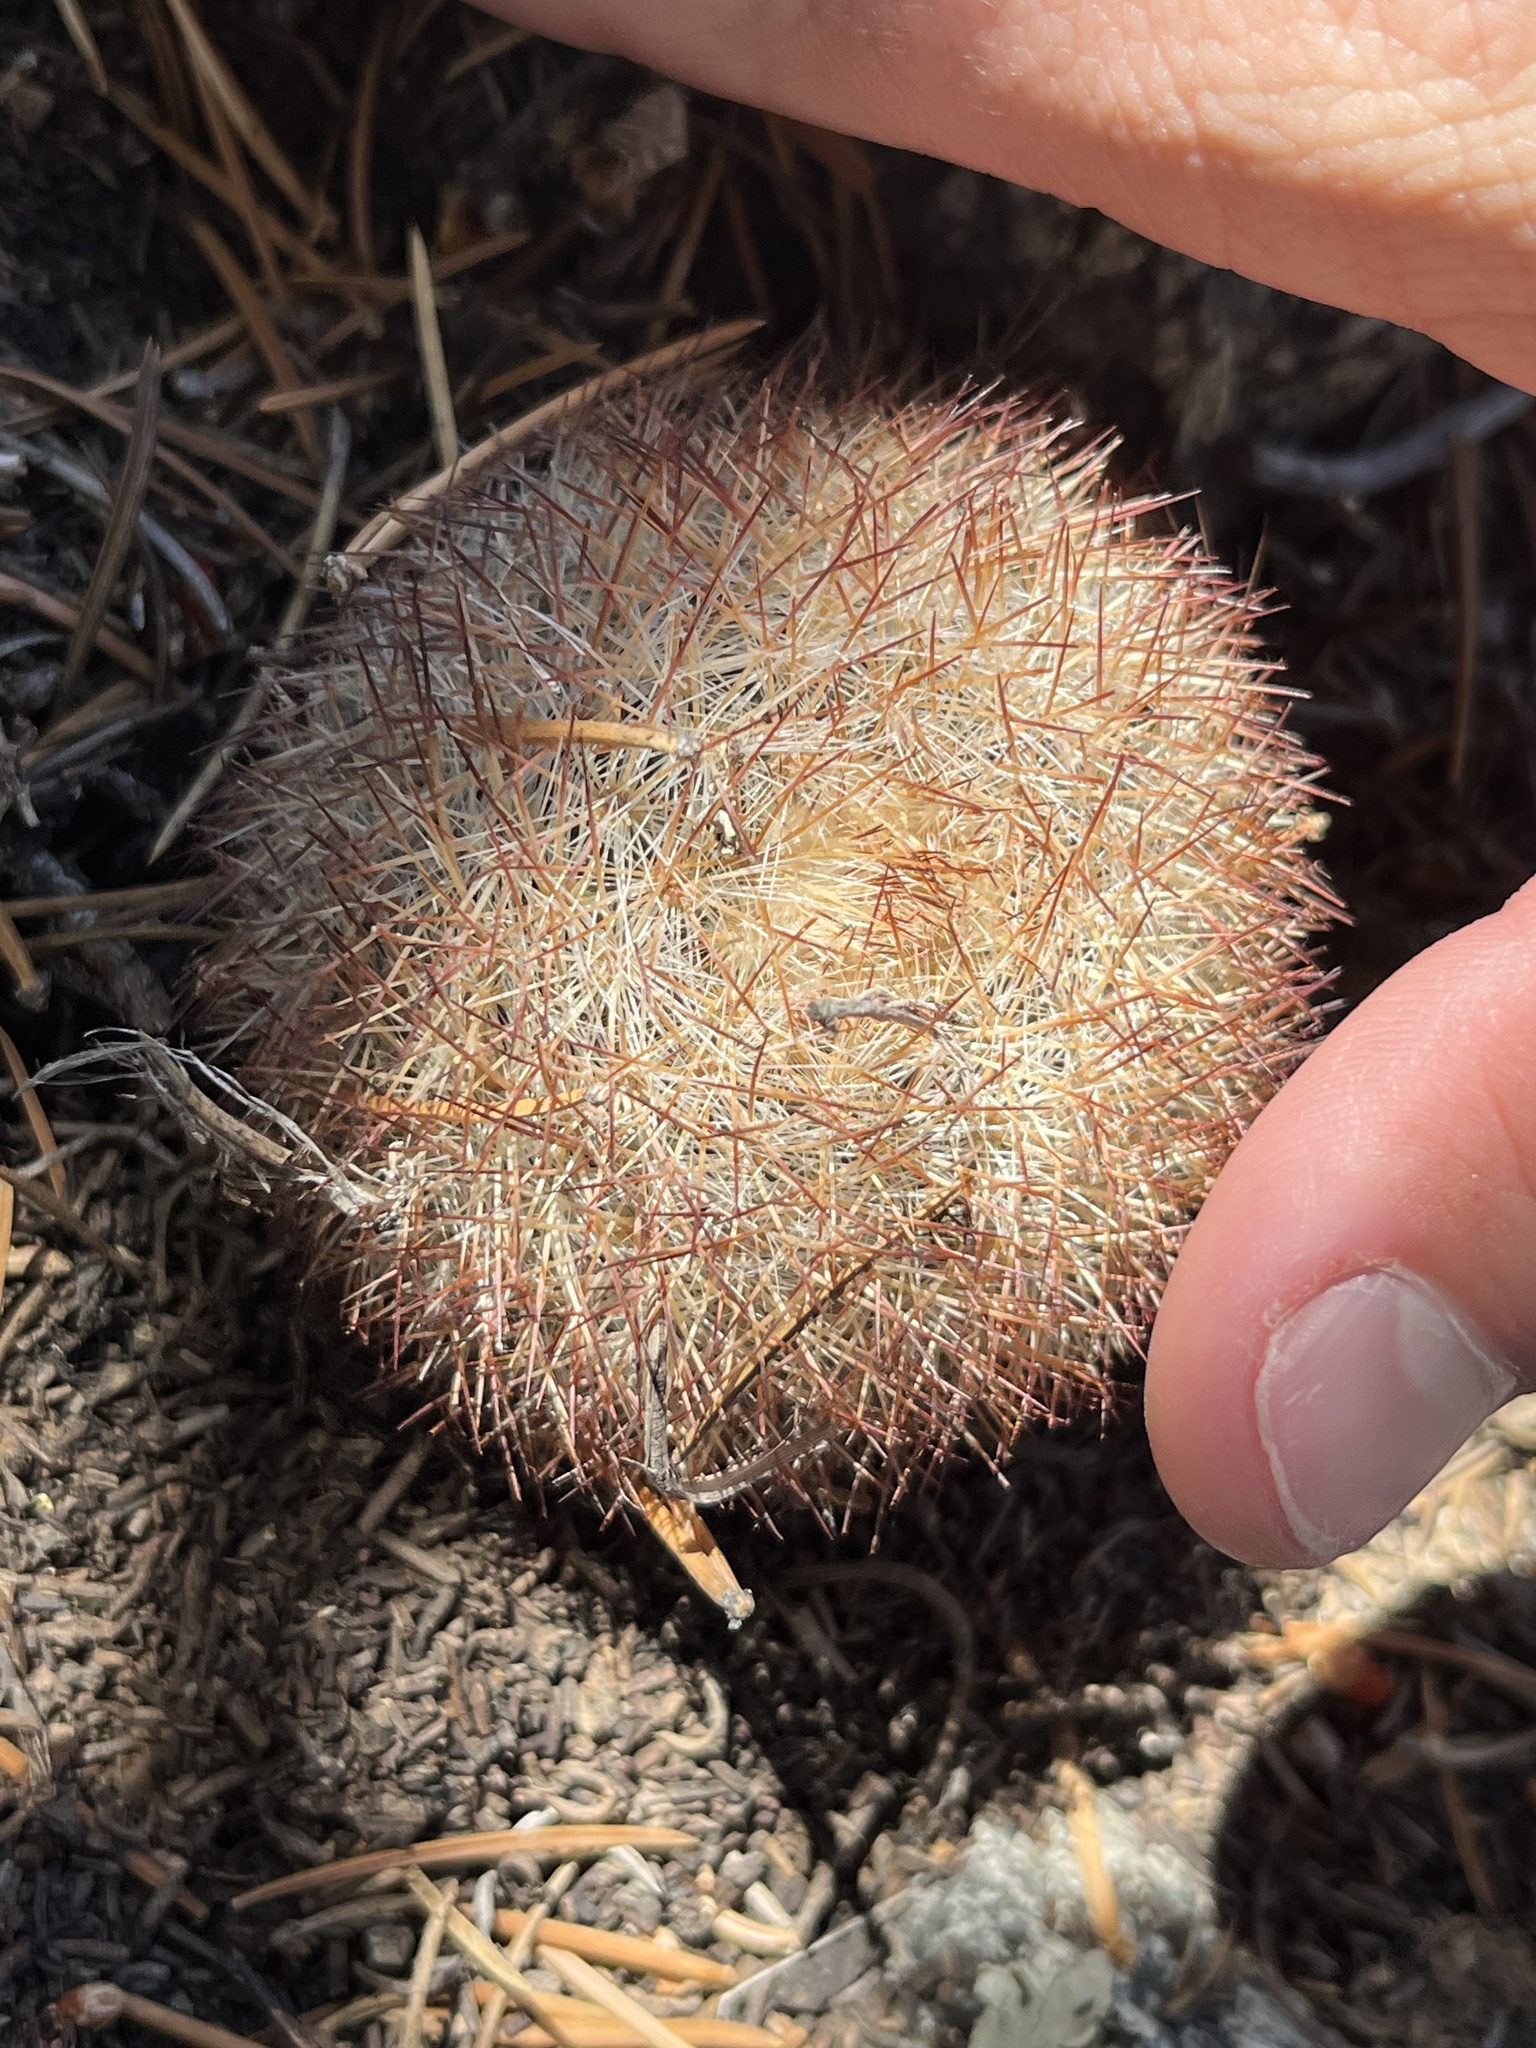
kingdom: Plantae
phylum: Tracheophyta
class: Magnoliopsida
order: Caryophyllales
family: Cactaceae
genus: Pediocactus
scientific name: Pediocactus simpsonii
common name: Simpson's hedgehog cactus
